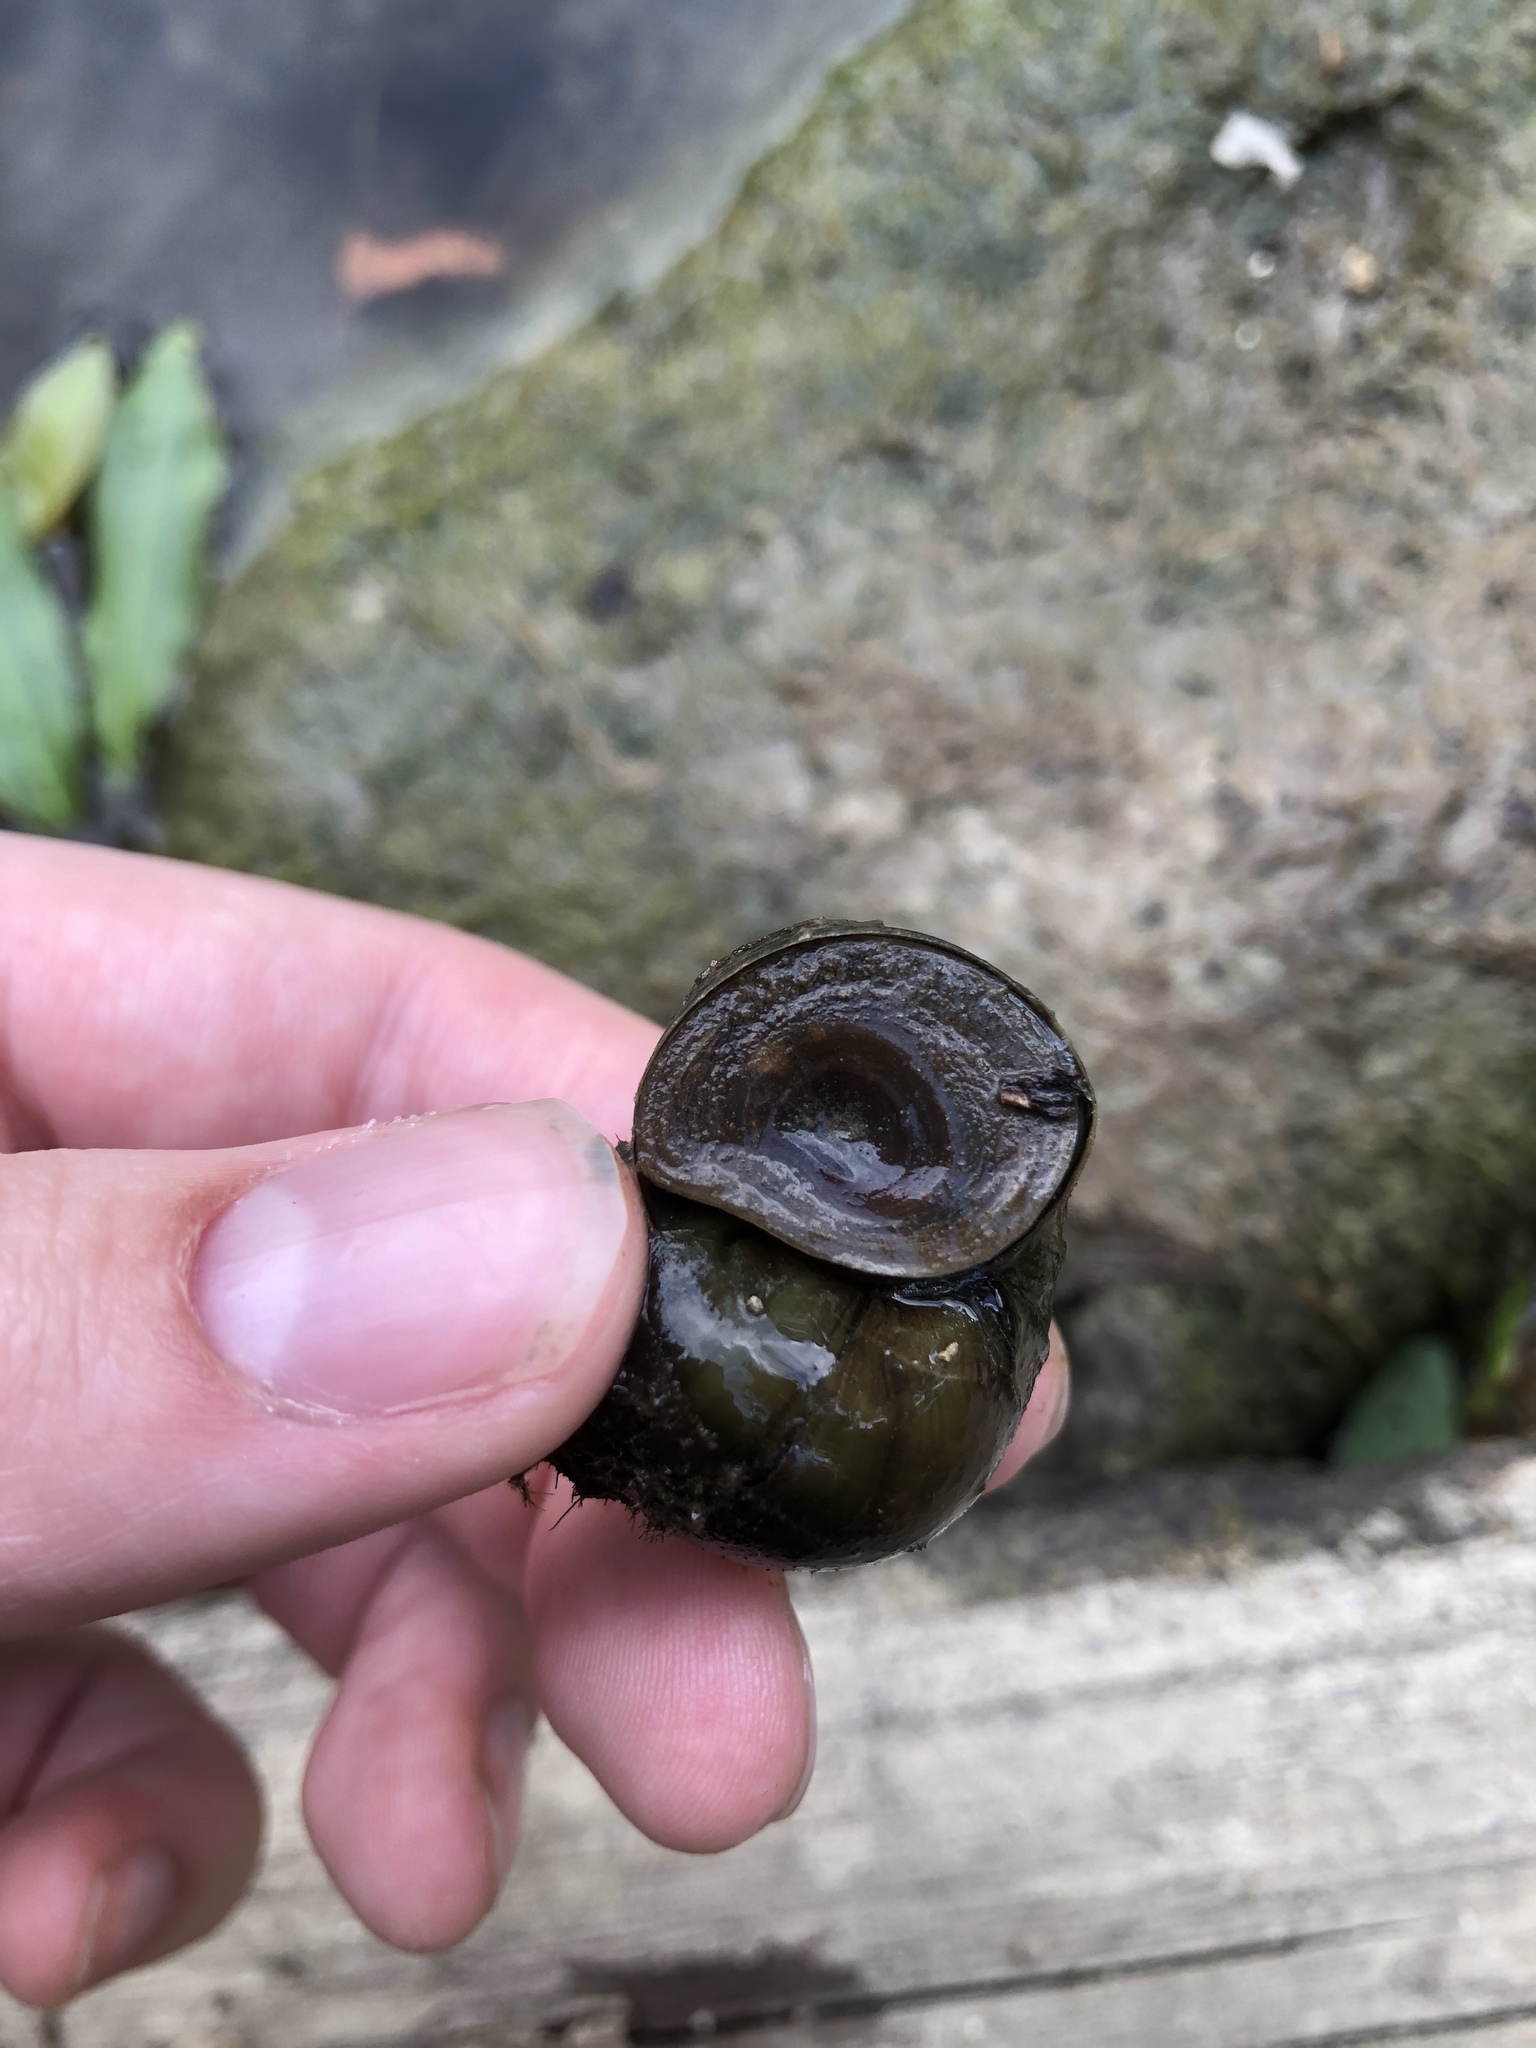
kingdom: Animalia
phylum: Mollusca
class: Gastropoda
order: Architaenioglossa
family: Viviparidae
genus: Cipangopaludina
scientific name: Cipangopaludina chinensis
